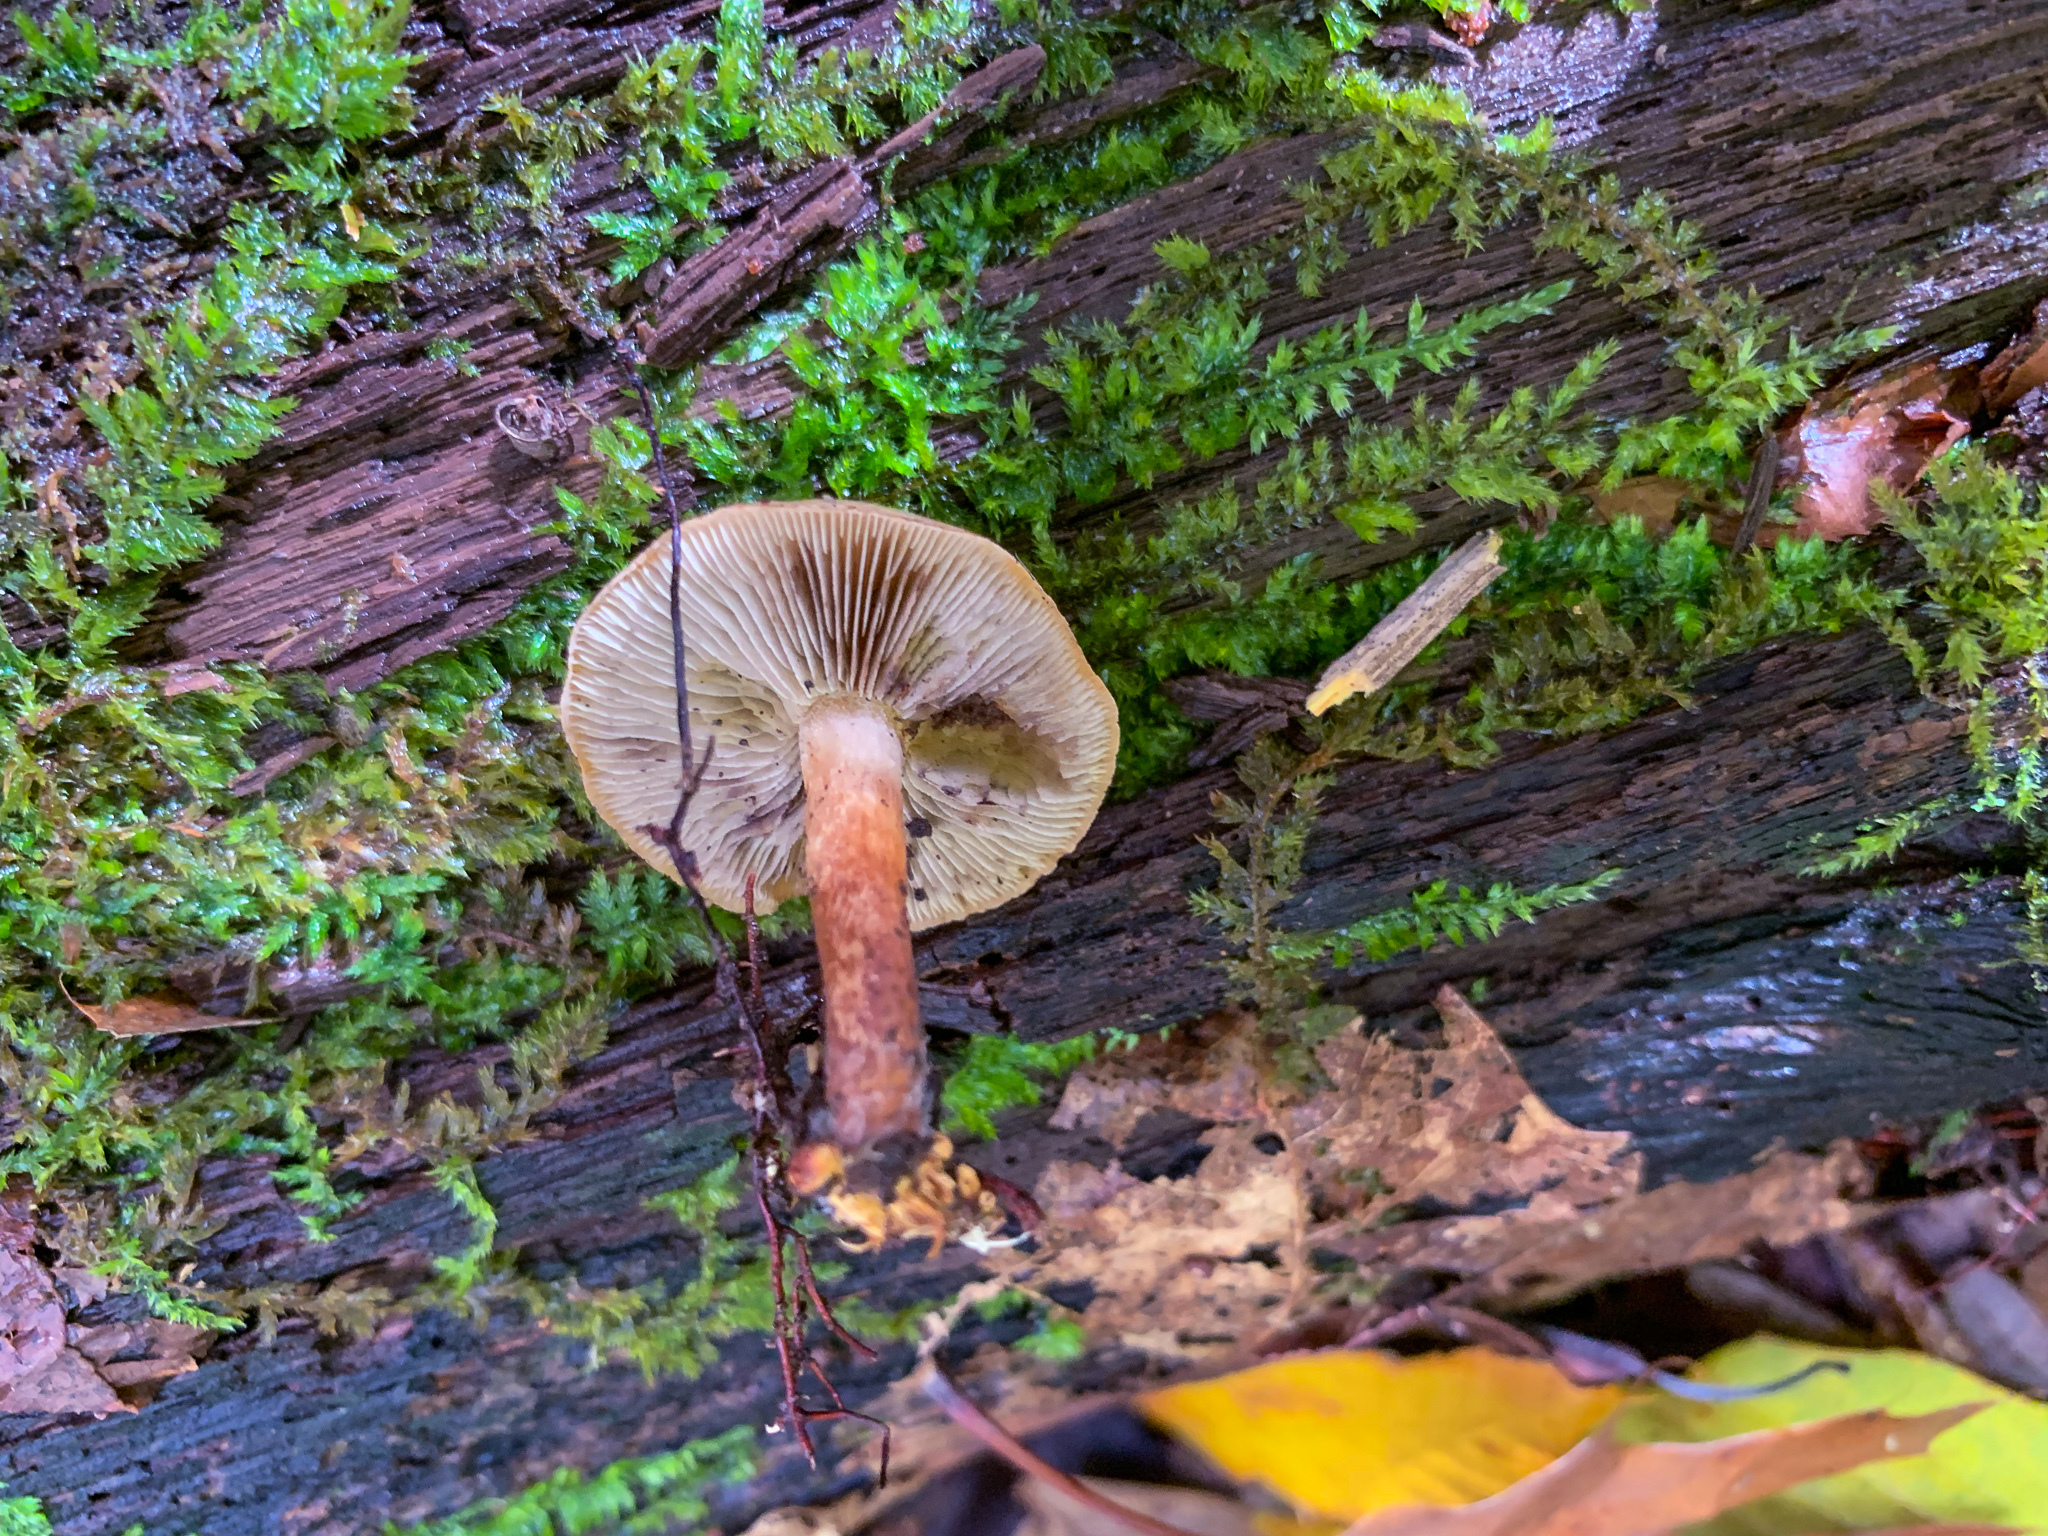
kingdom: Fungi
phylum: Basidiomycota
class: Agaricomycetes
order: Agaricales
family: Strophariaceae
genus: Hypholoma
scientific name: Hypholoma lateritium
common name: Brick caps
